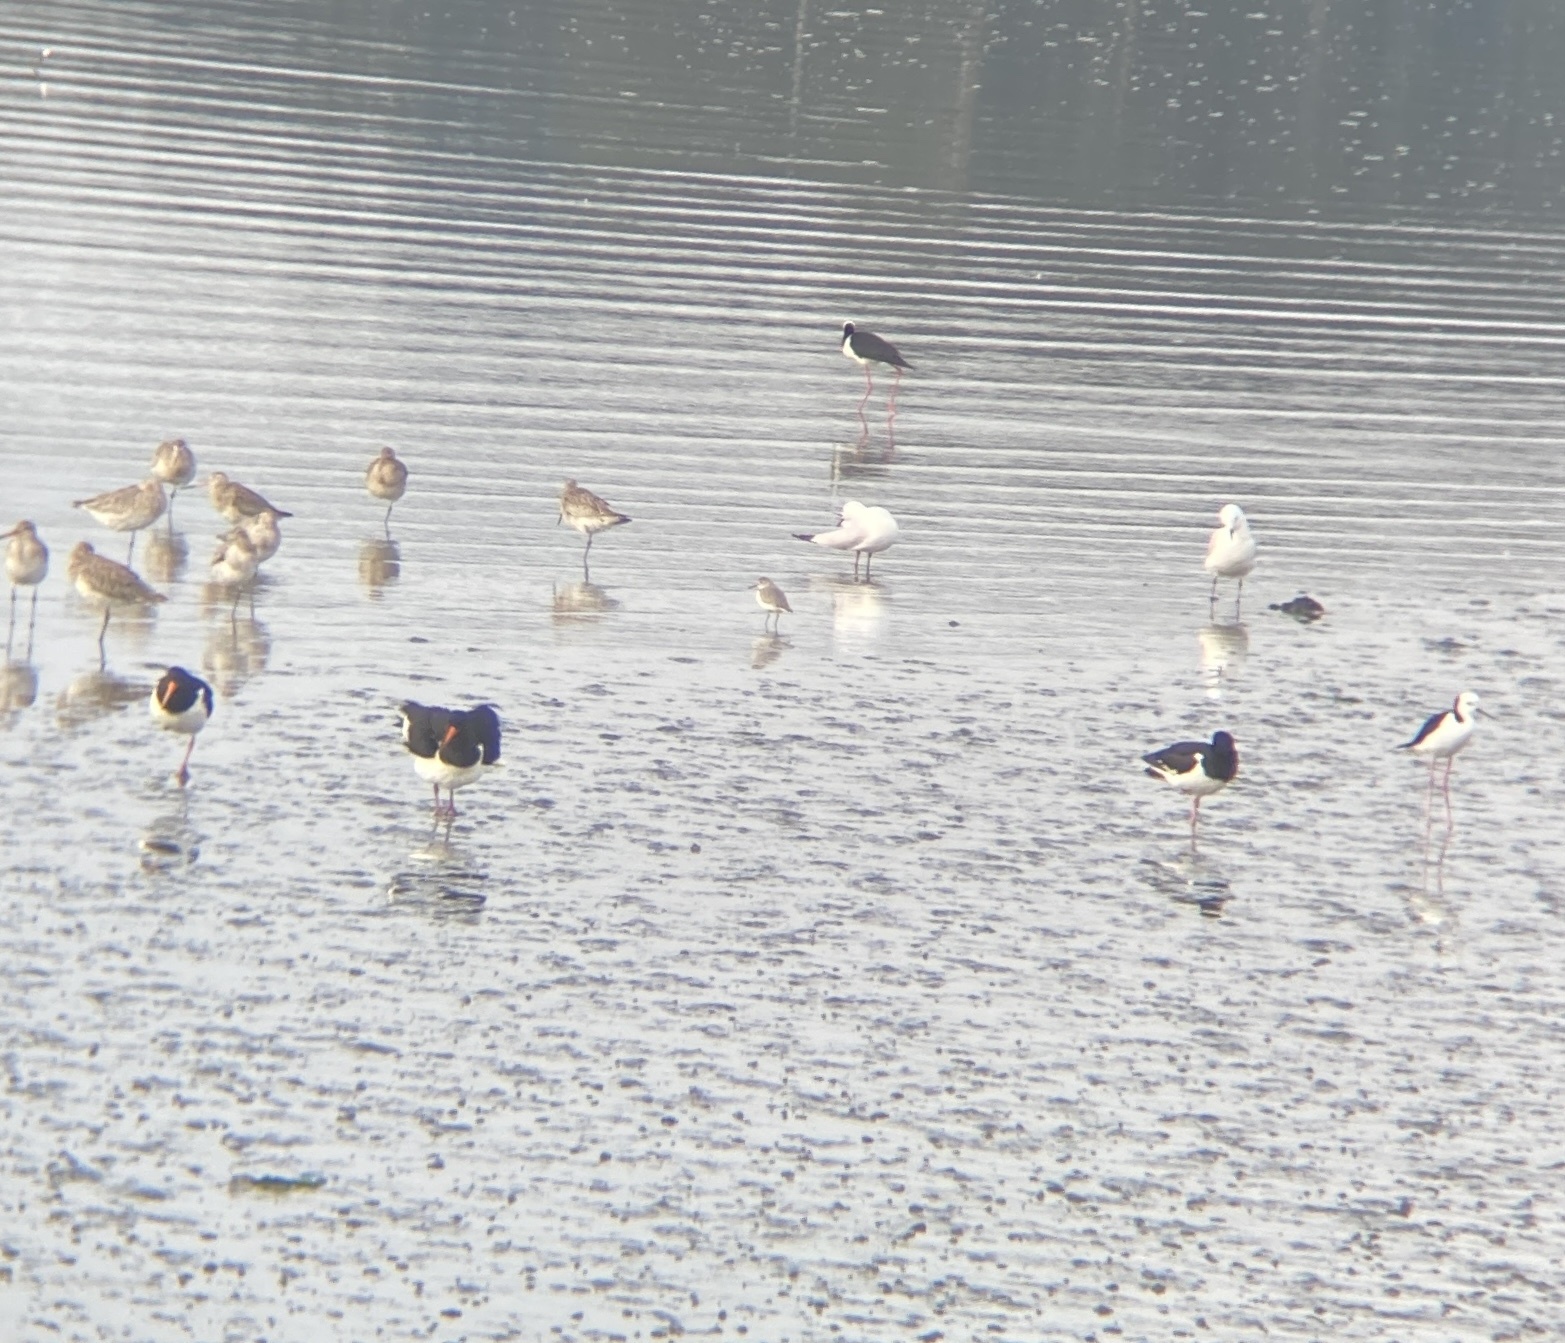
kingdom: Animalia
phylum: Chordata
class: Aves
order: Charadriiformes
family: Charadriidae
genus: Anarhynchus
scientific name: Anarhynchus frontalis
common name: Wrybill
